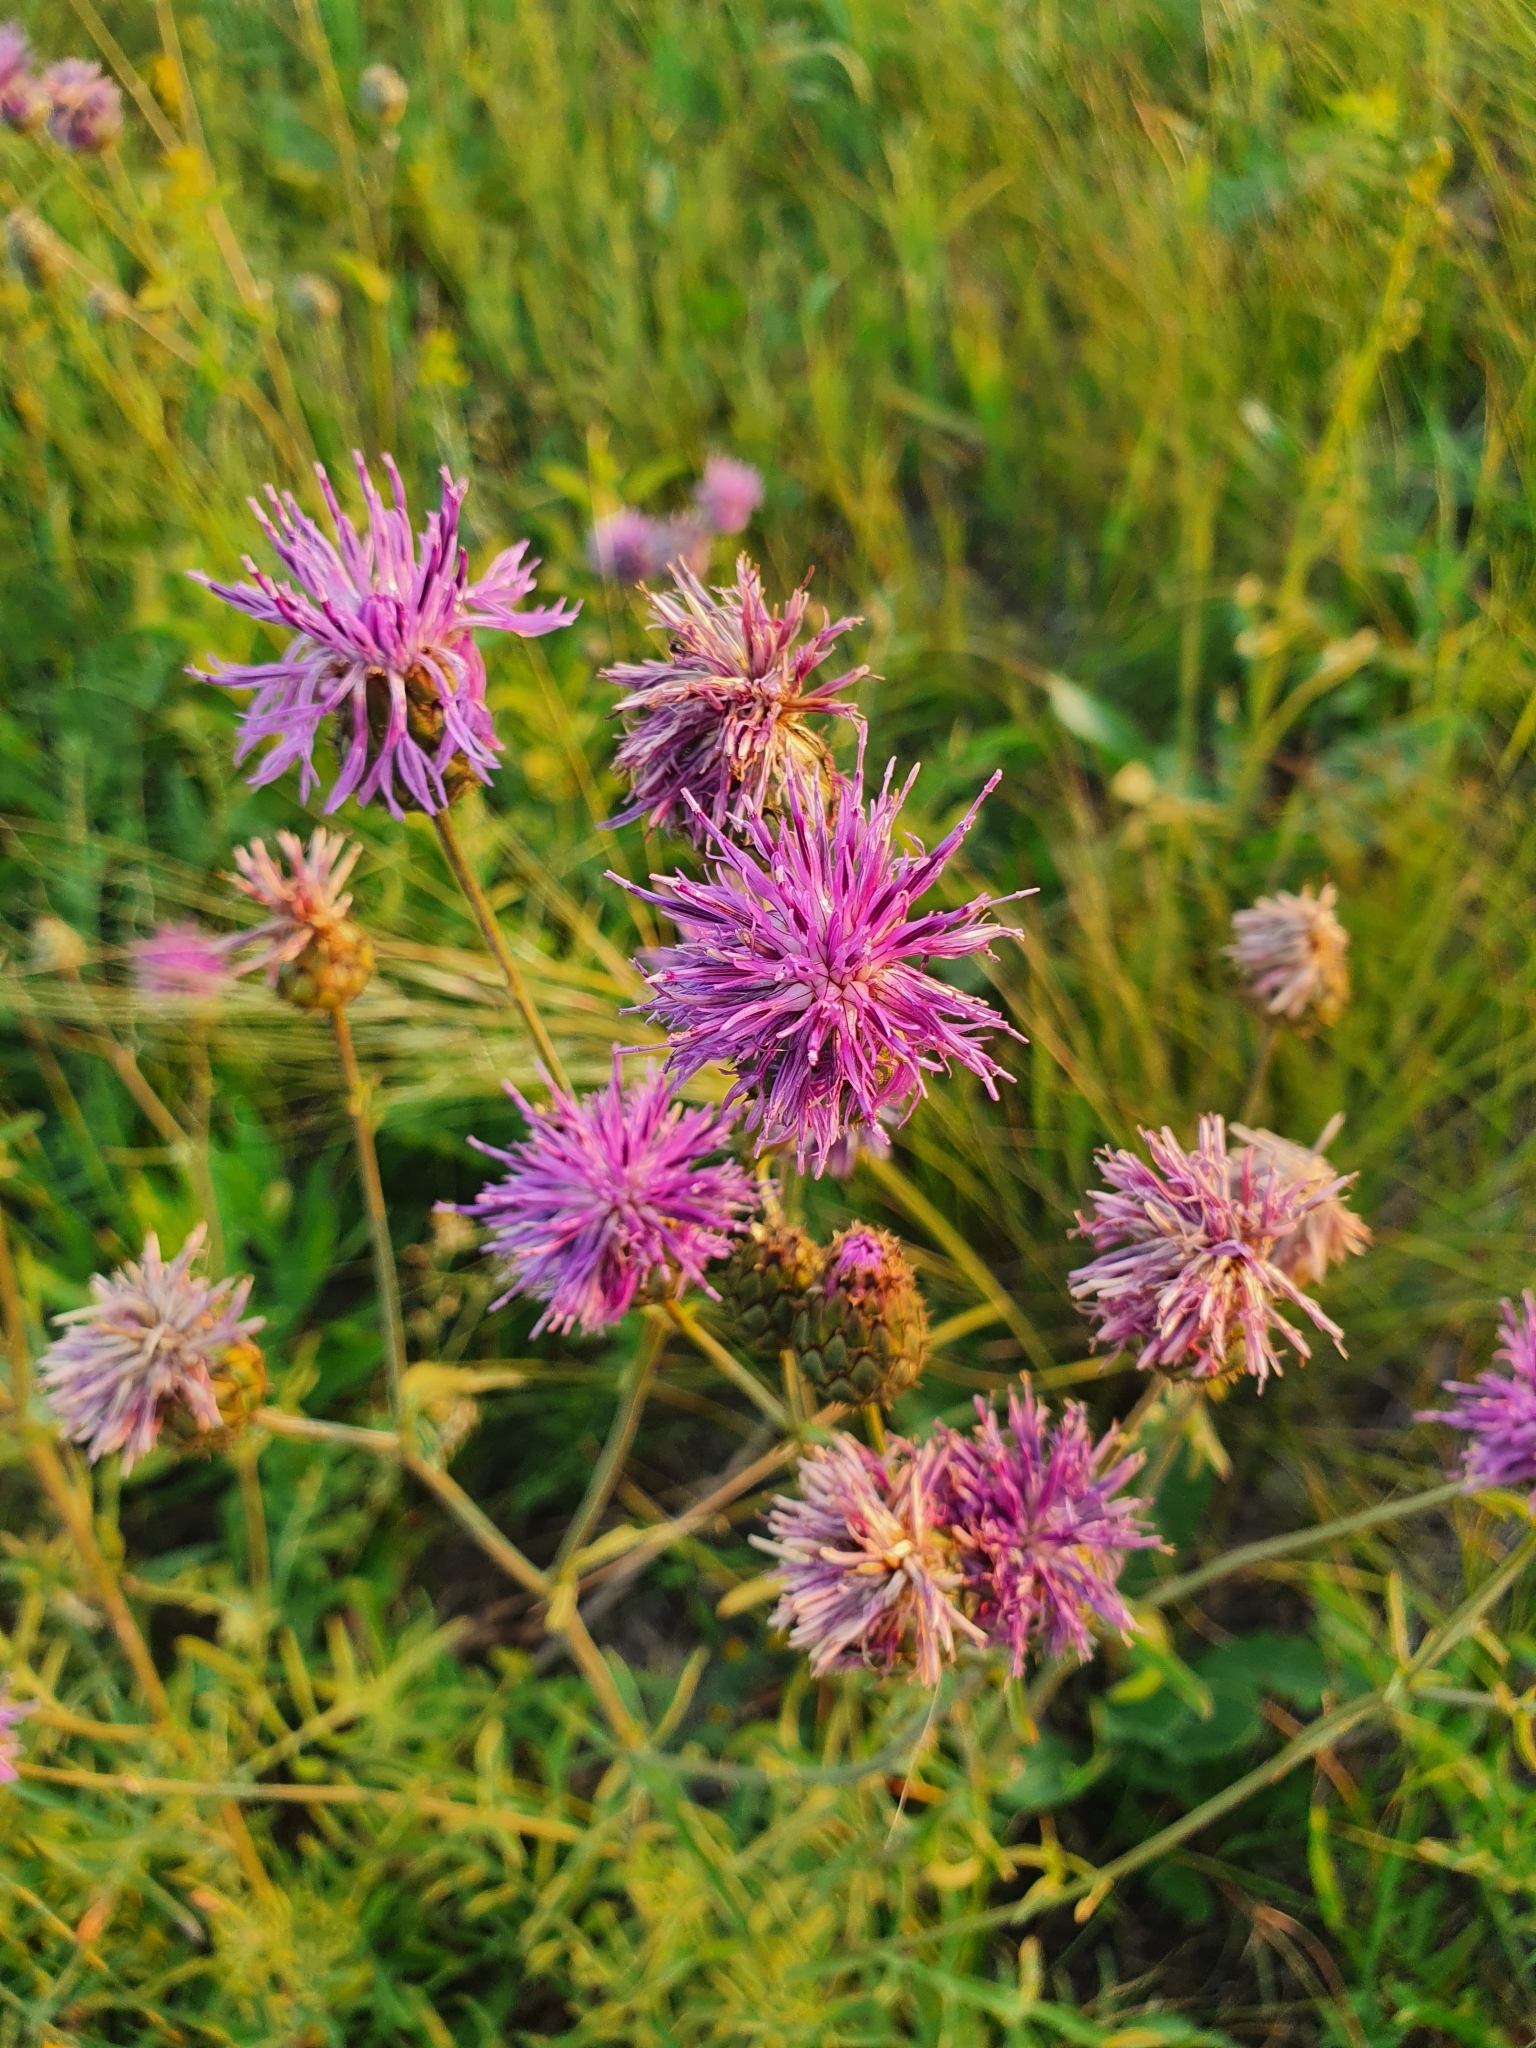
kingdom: Plantae
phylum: Tracheophyta
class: Magnoliopsida
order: Asterales
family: Asteraceae
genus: Centaurea
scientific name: Centaurea scabiosa
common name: Greater knapweed
